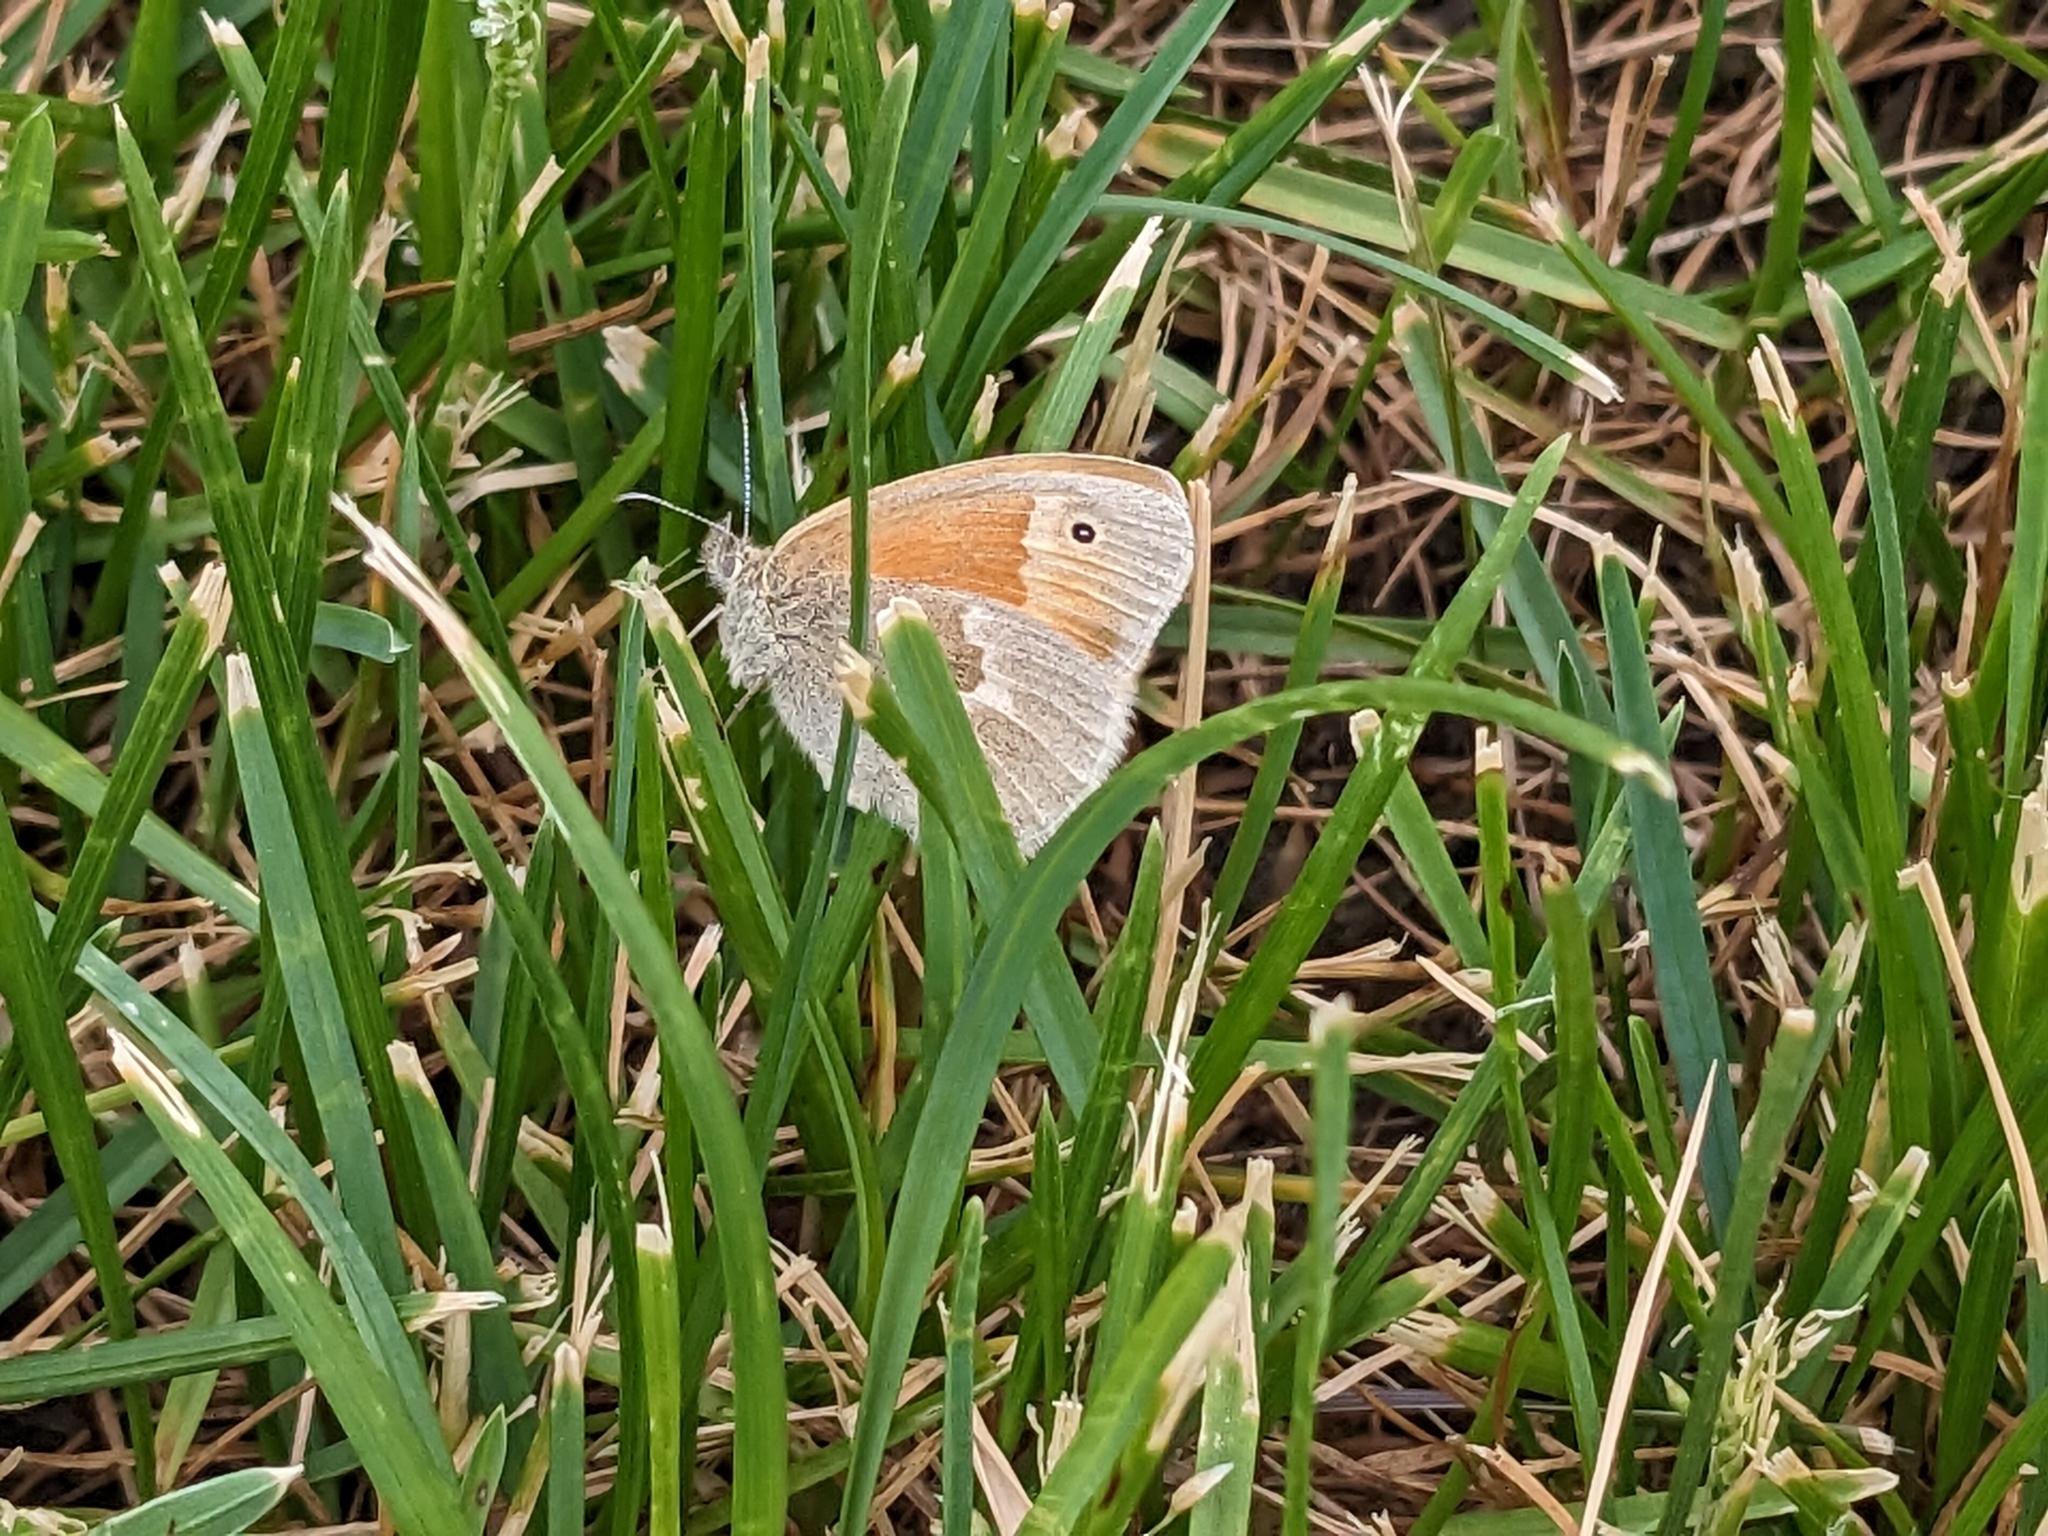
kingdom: Animalia
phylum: Arthropoda
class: Insecta
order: Lepidoptera
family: Nymphalidae
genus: Coenonympha
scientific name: Coenonympha california
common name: Common ringlet
